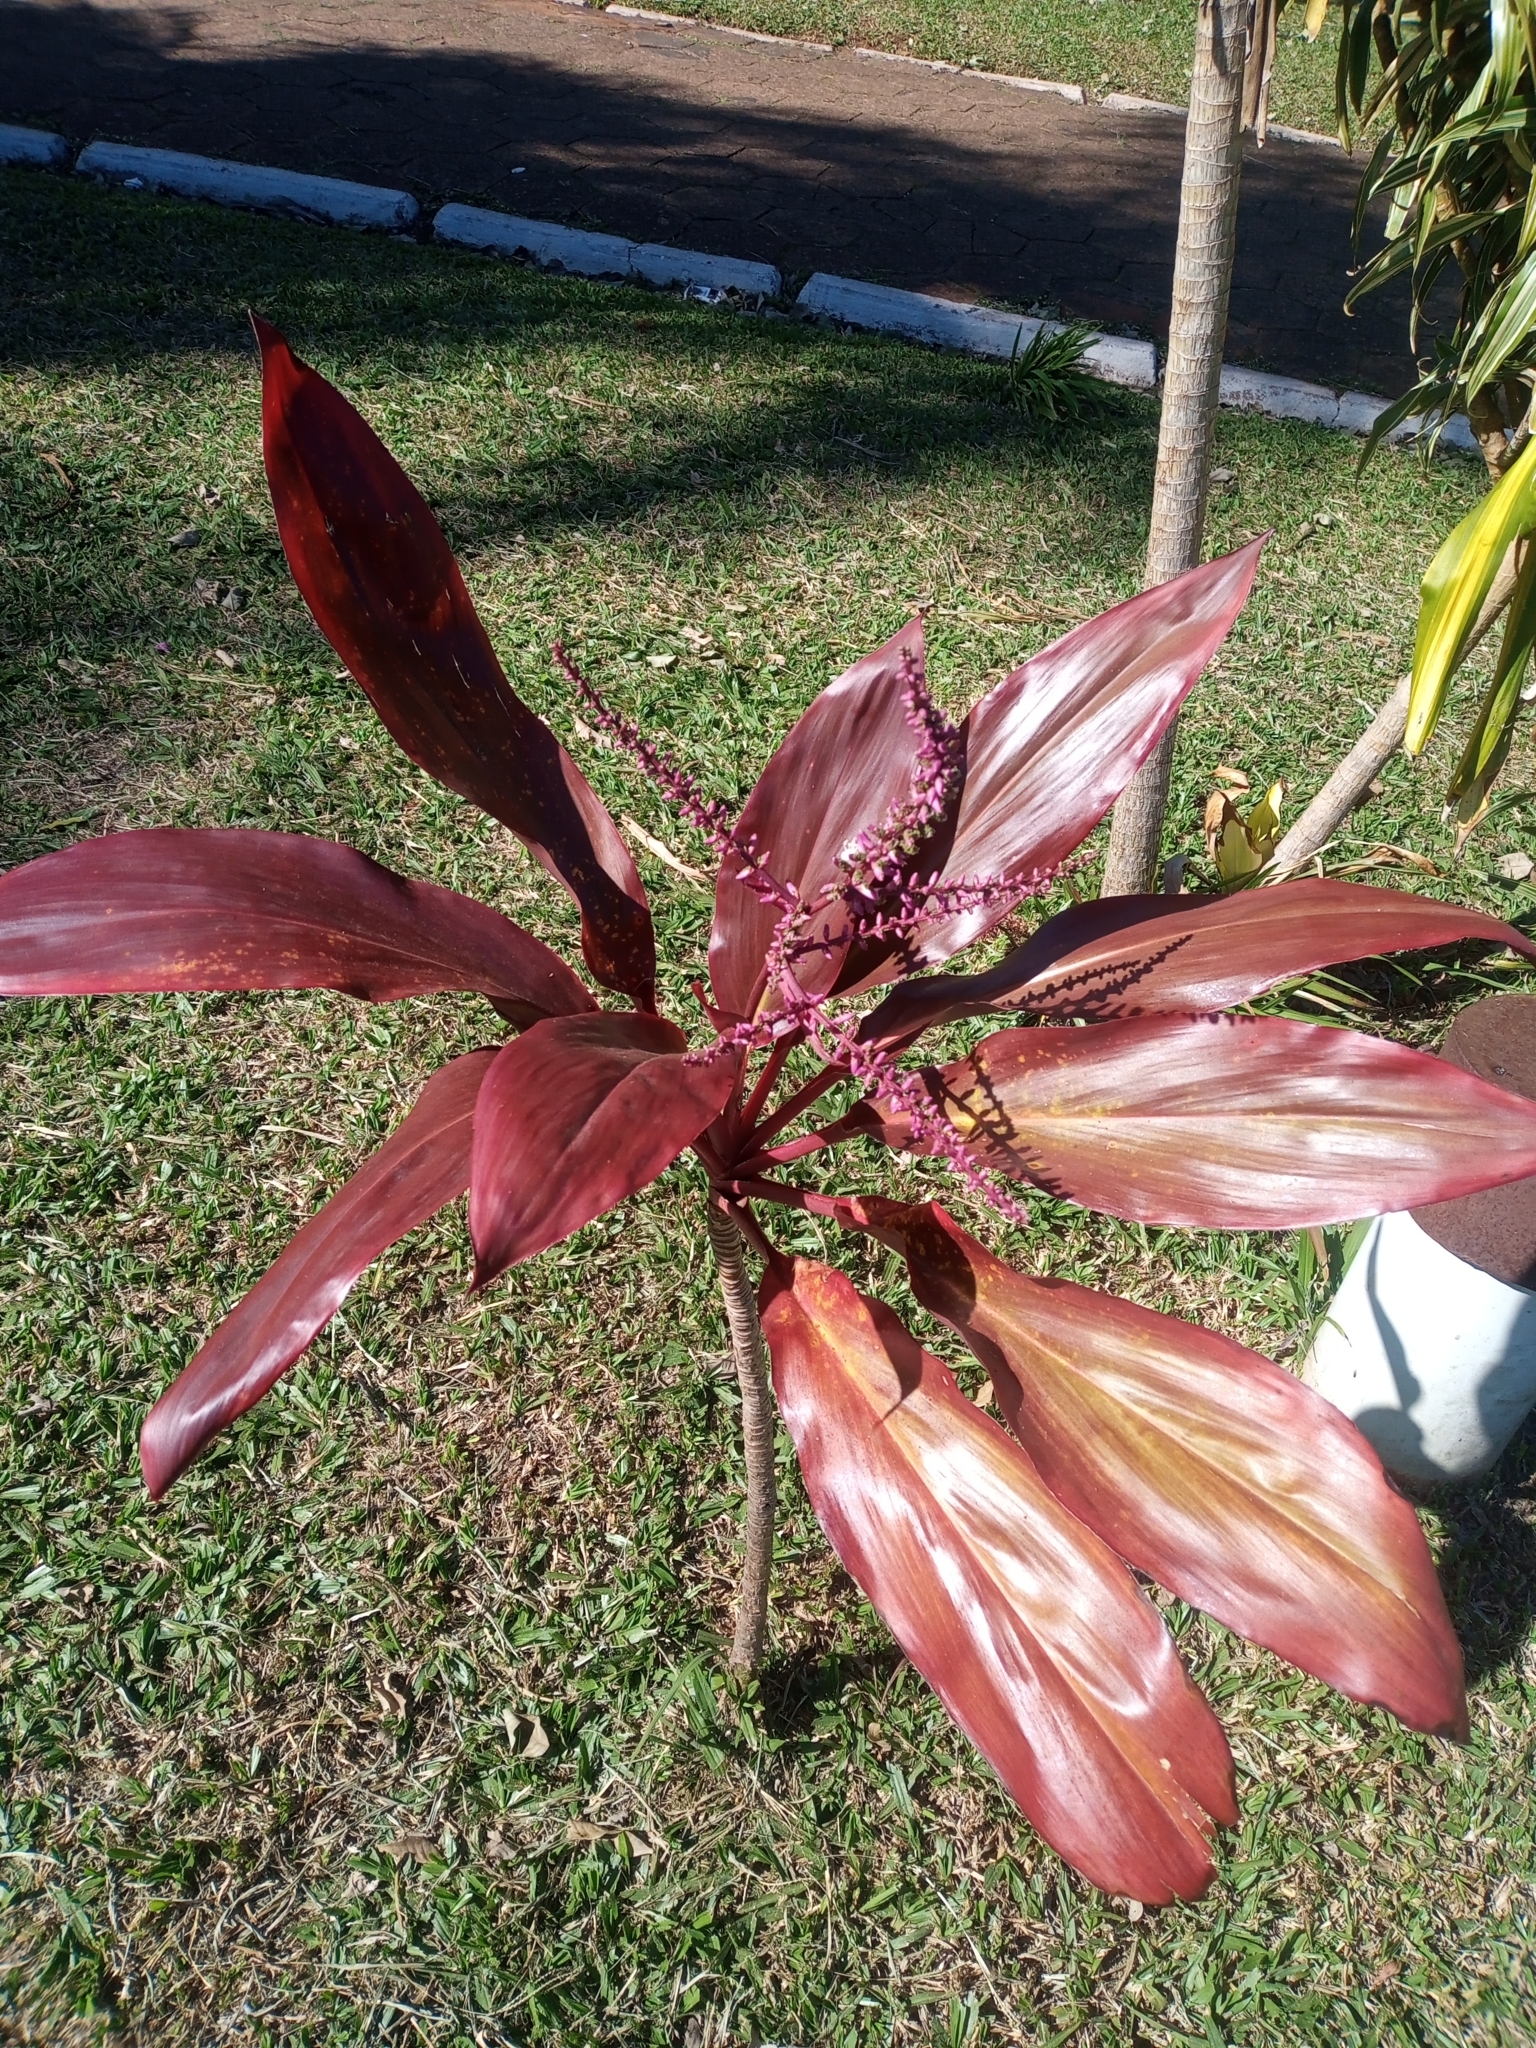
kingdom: Plantae
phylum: Tracheophyta
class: Liliopsida
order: Asparagales
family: Asparagaceae
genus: Cordyline
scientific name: Cordyline fruticosa
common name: Good-luck-plant
